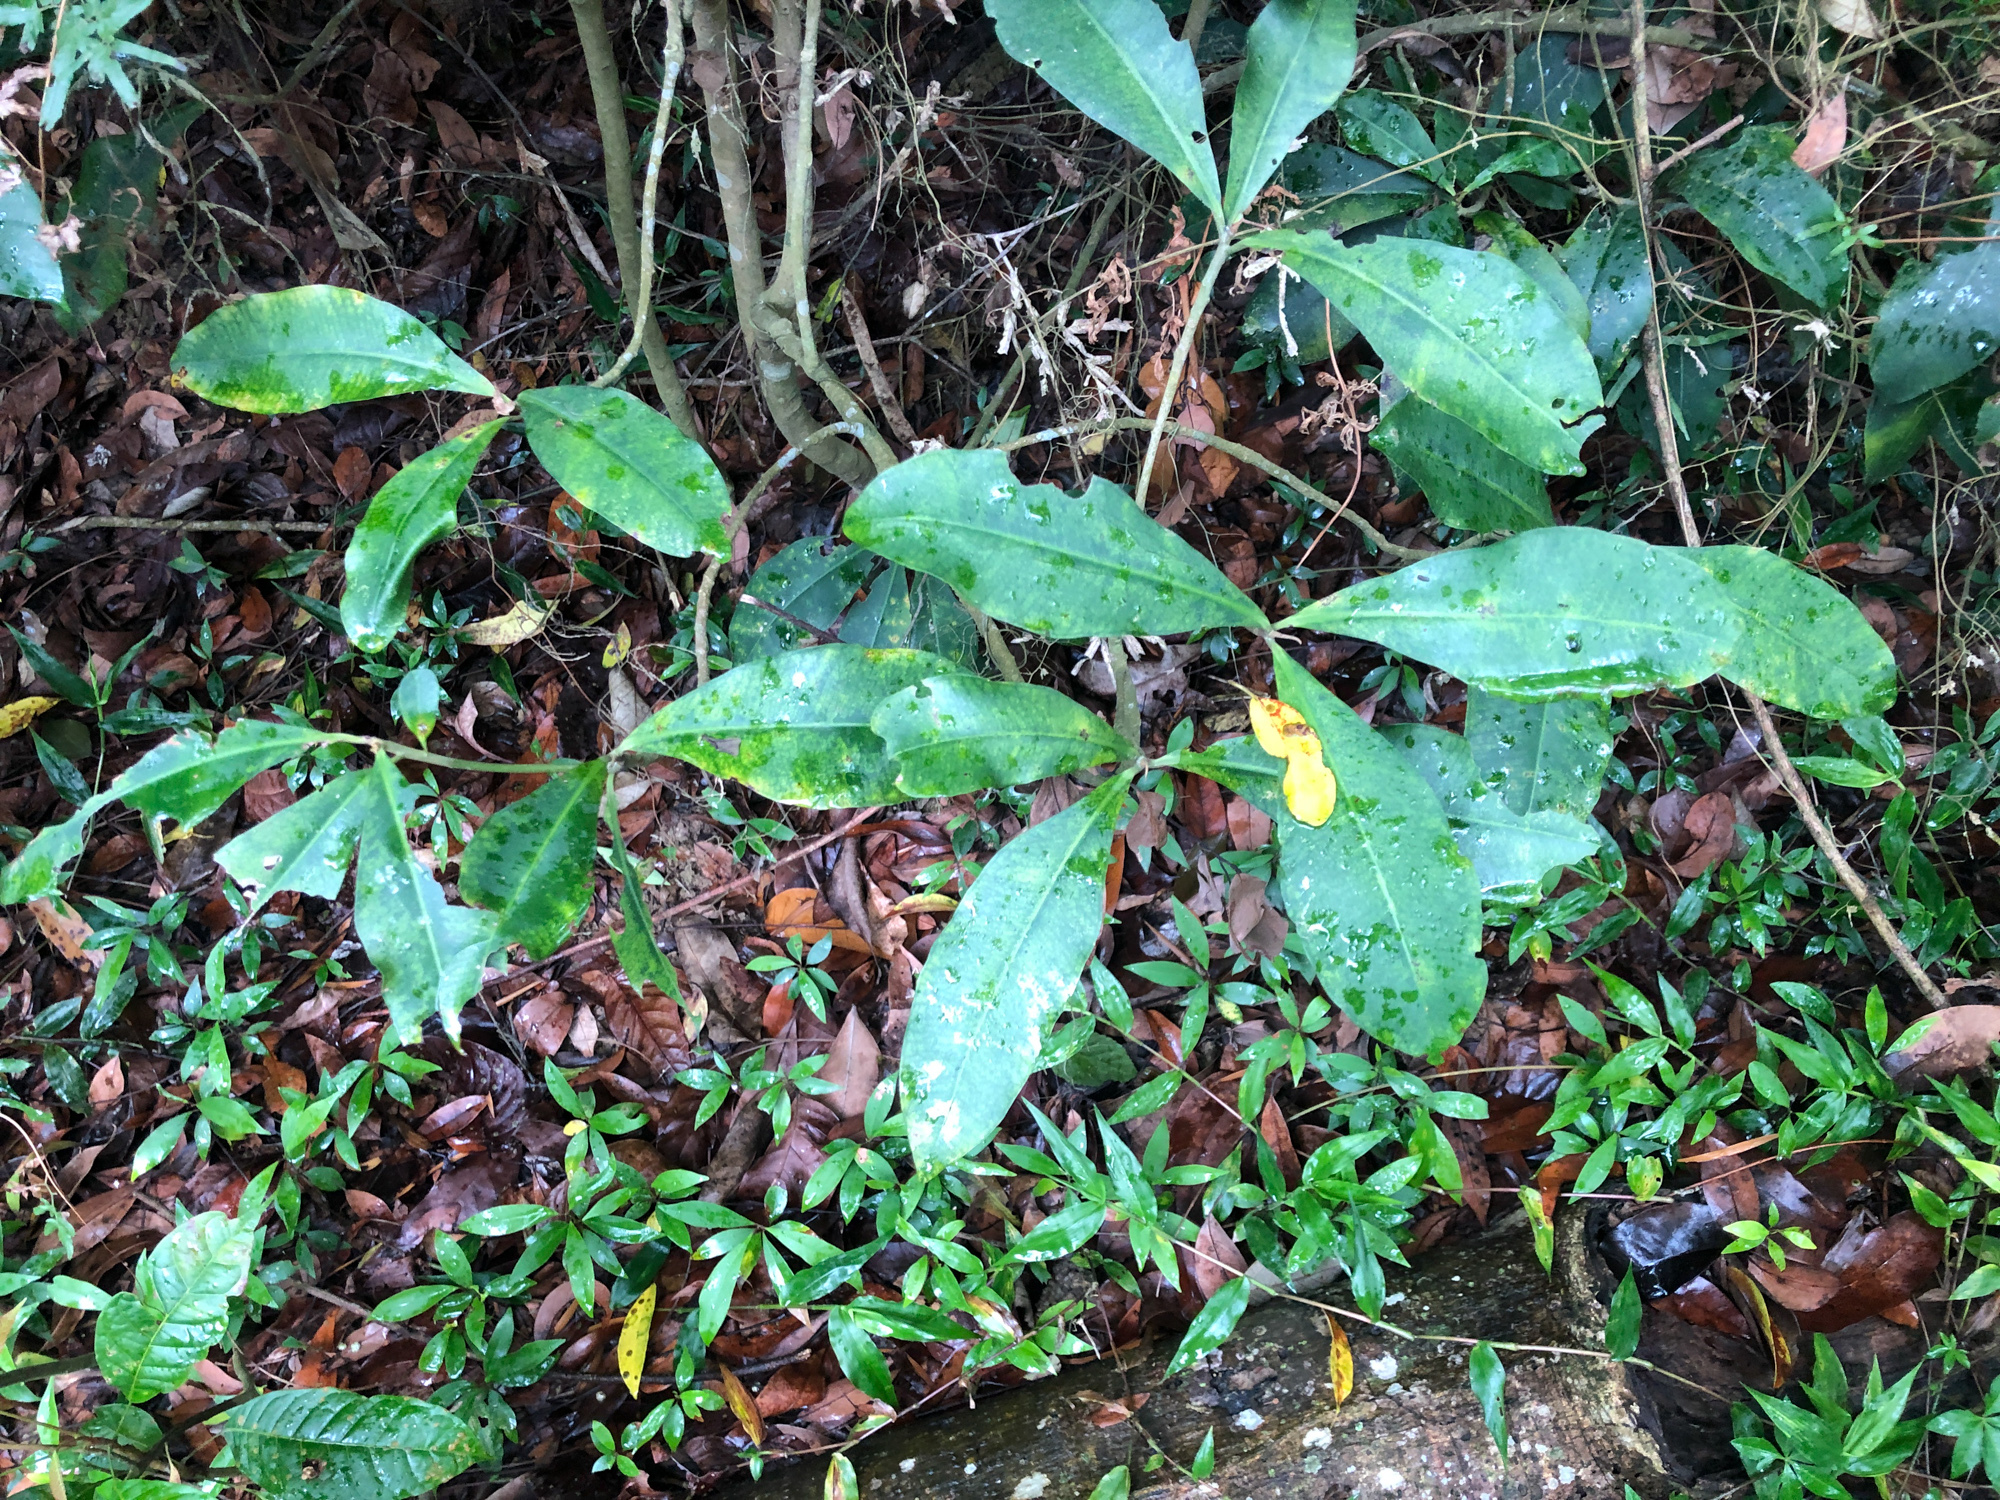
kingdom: Plantae
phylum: Tracheophyta
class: Magnoliopsida
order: Gentianales
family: Rubiaceae
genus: Psychotria
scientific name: Psychotria asiatica
